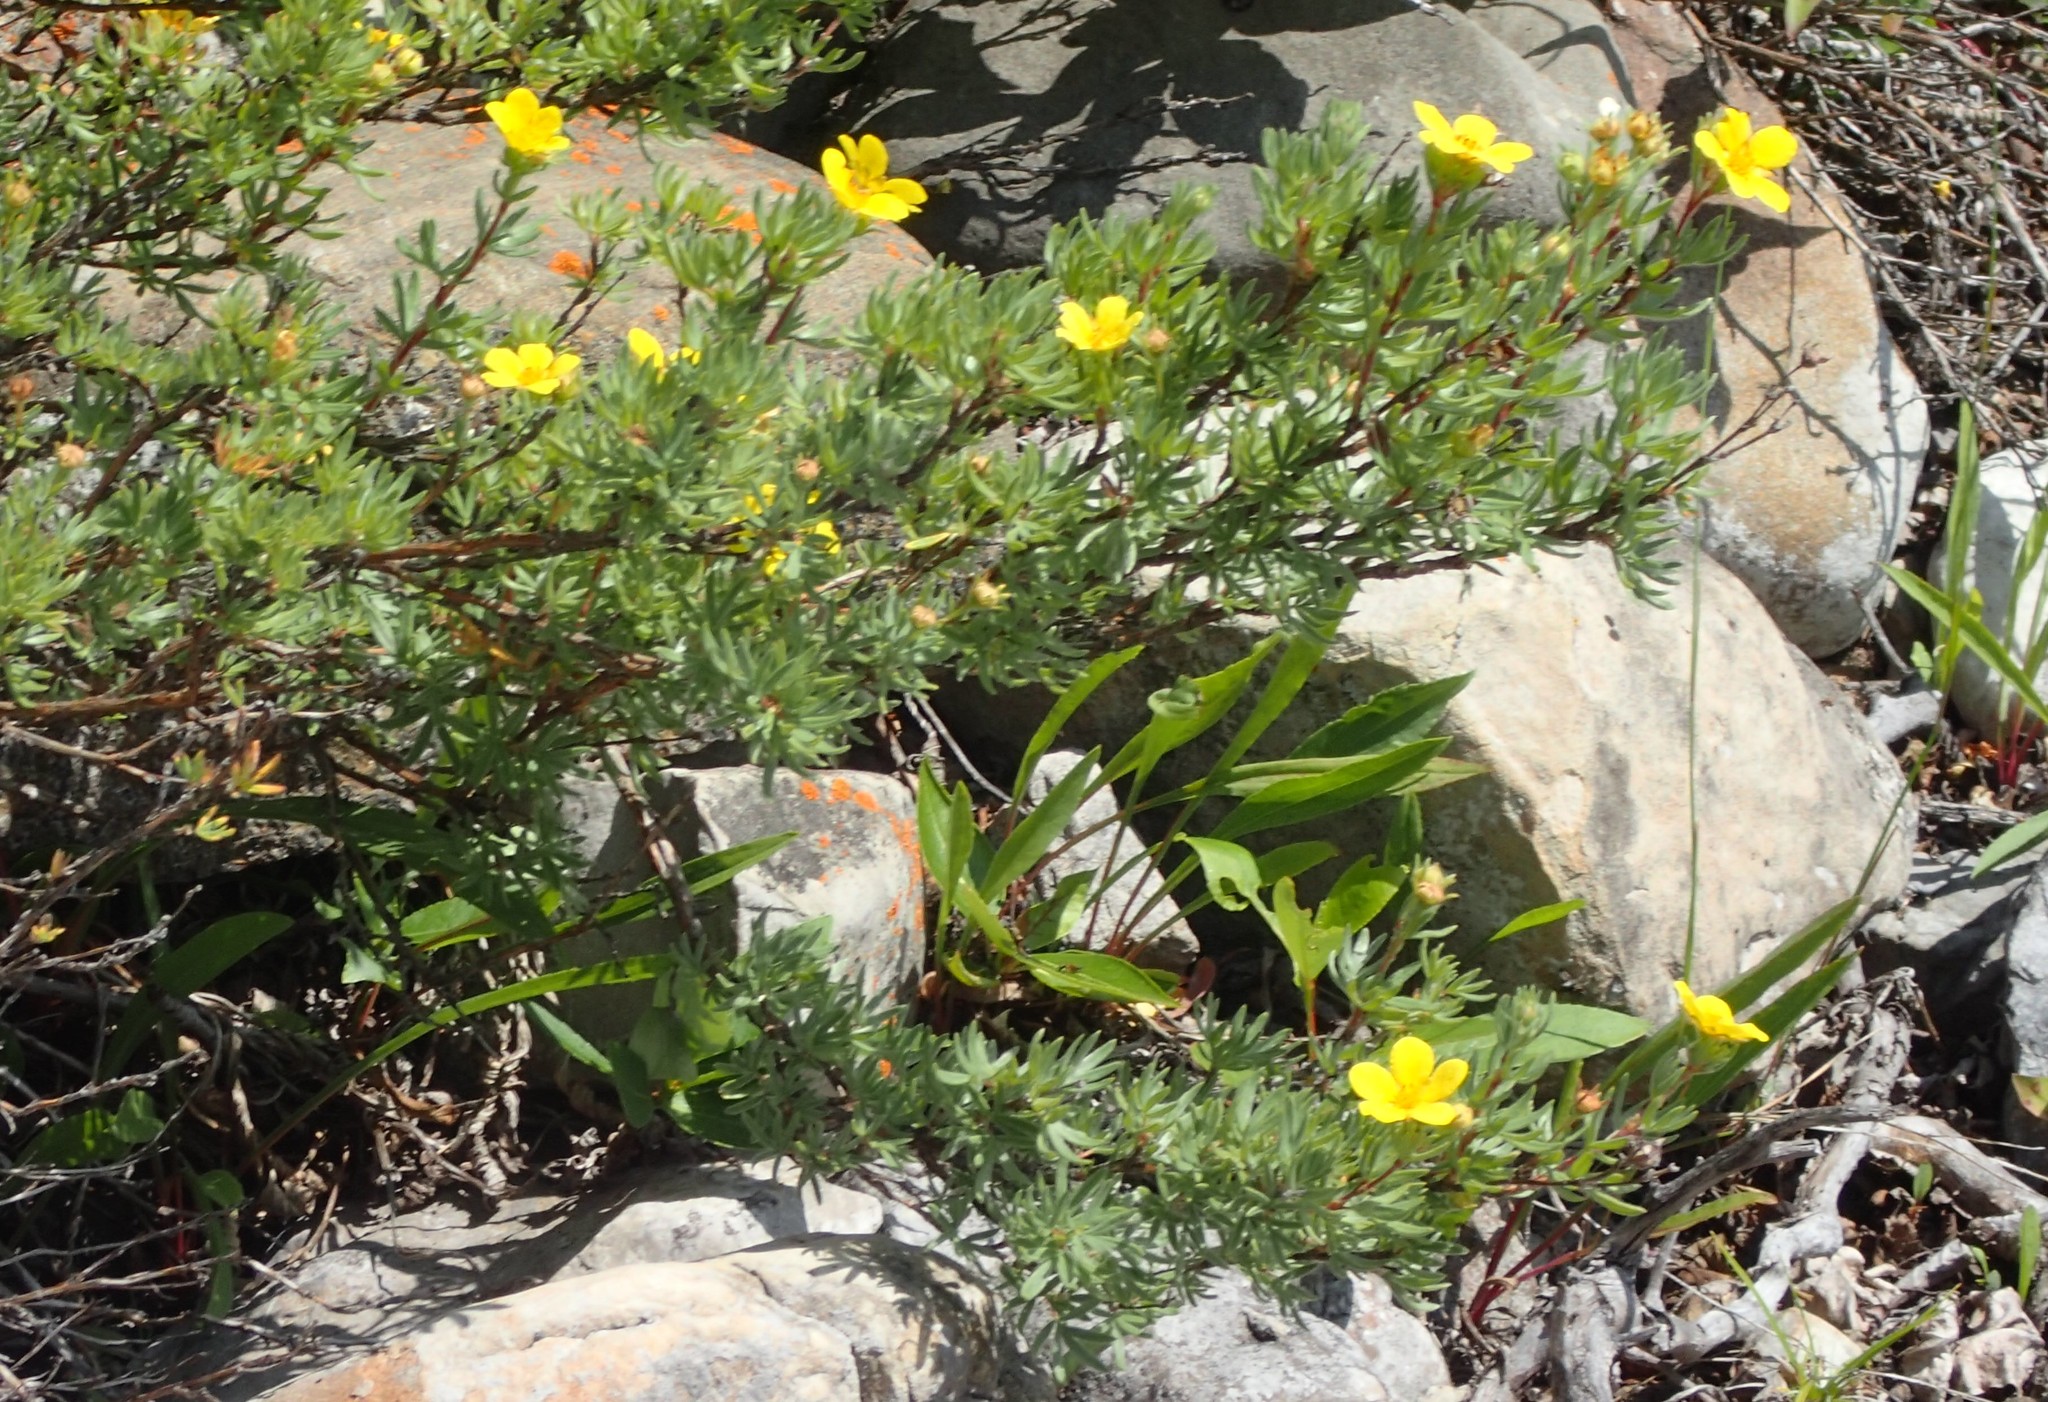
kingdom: Plantae
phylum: Tracheophyta
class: Magnoliopsida
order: Rosales
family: Rosaceae
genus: Dasiphora
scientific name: Dasiphora fruticosa
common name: Shrubby cinquefoil
